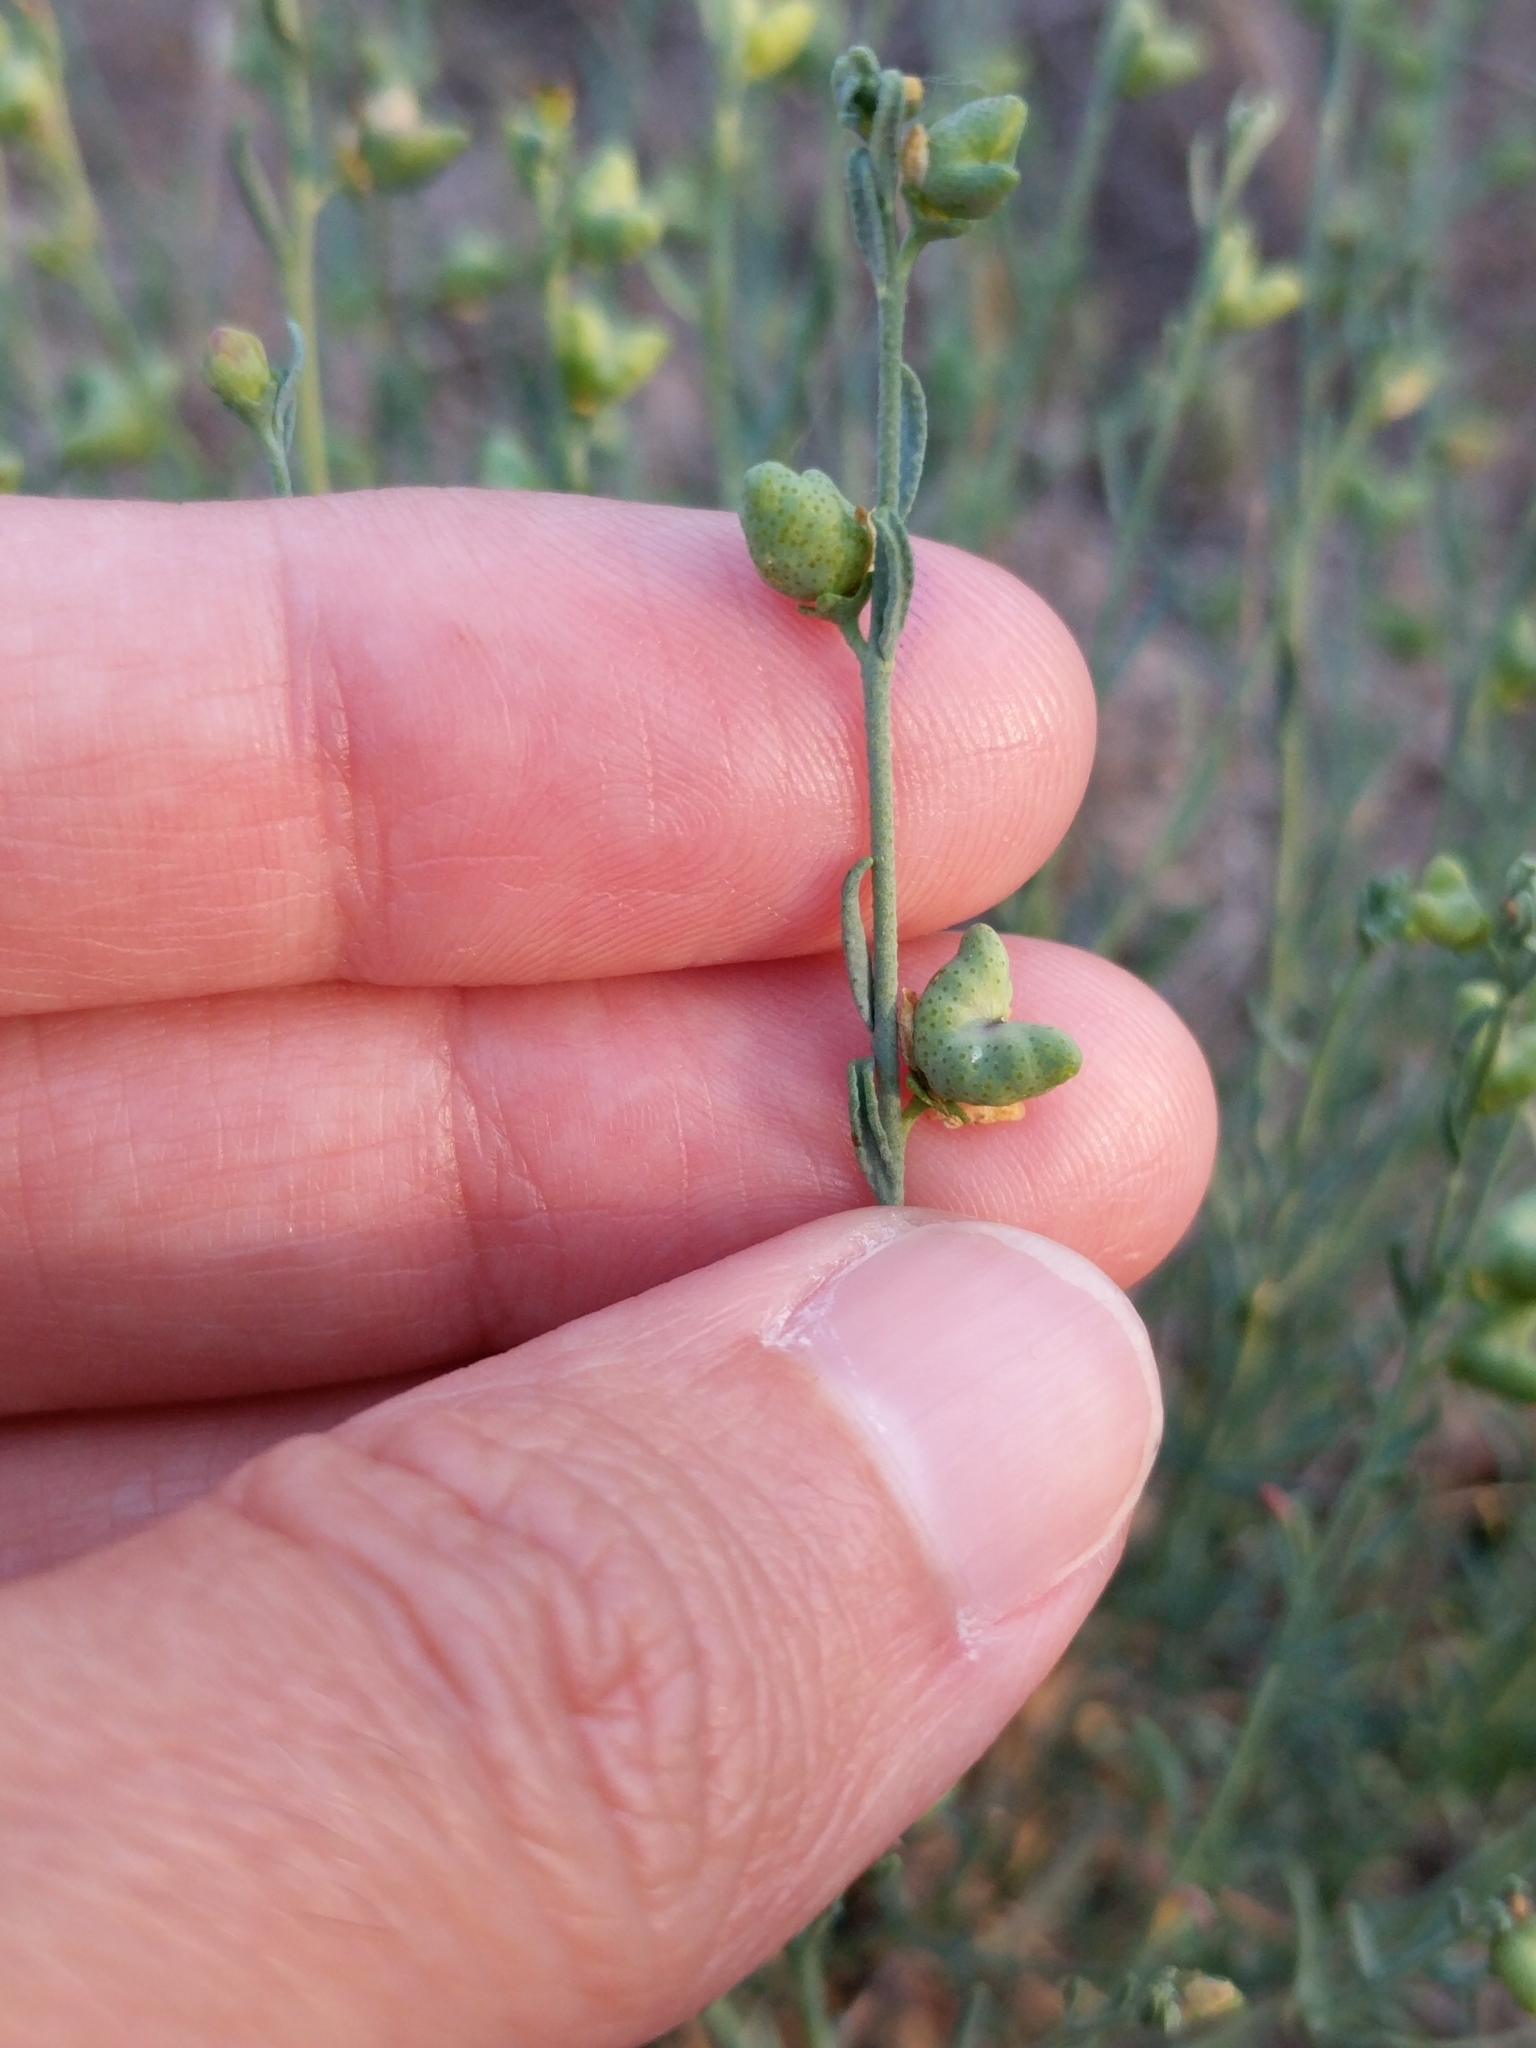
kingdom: Plantae
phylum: Tracheophyta
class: Magnoliopsida
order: Sapindales
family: Rutaceae
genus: Thamnosma
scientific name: Thamnosma texana
